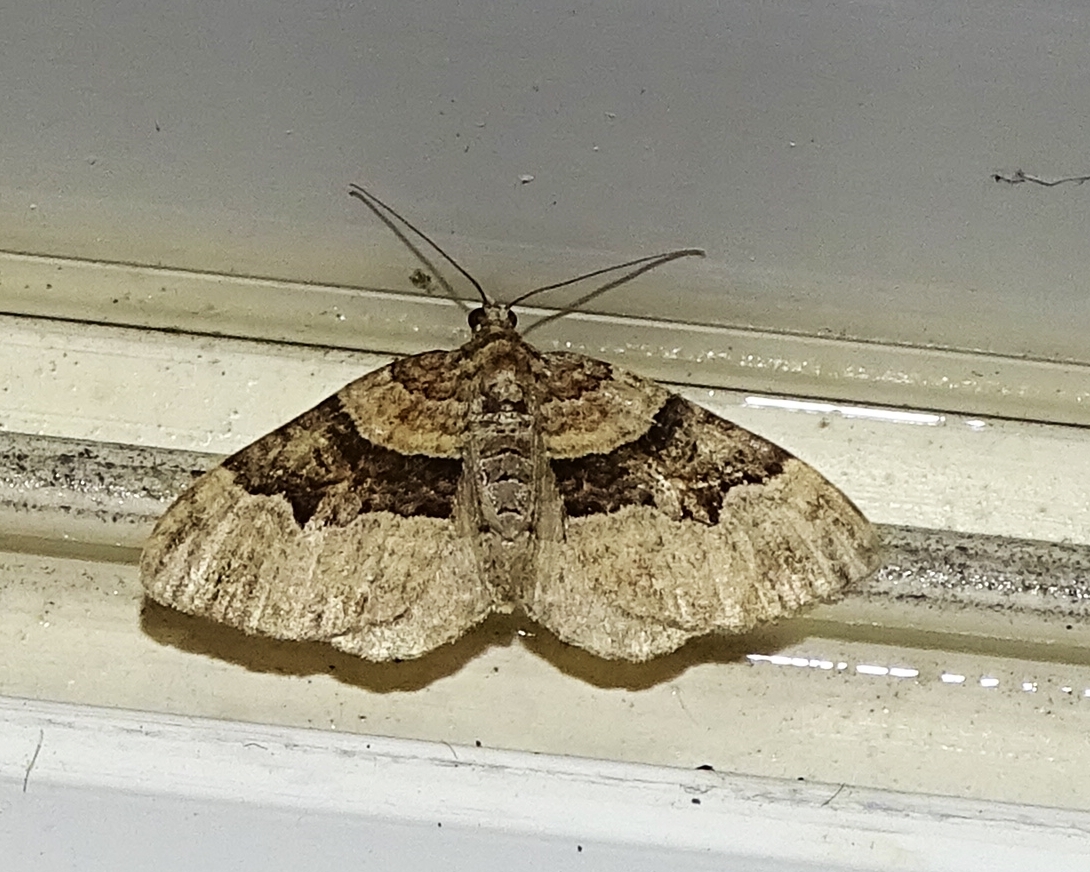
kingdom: Animalia
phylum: Arthropoda
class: Insecta
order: Lepidoptera
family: Geometridae
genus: Xanthorhoe
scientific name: Xanthorhoe lacustrata
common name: Toothed brown carpet
